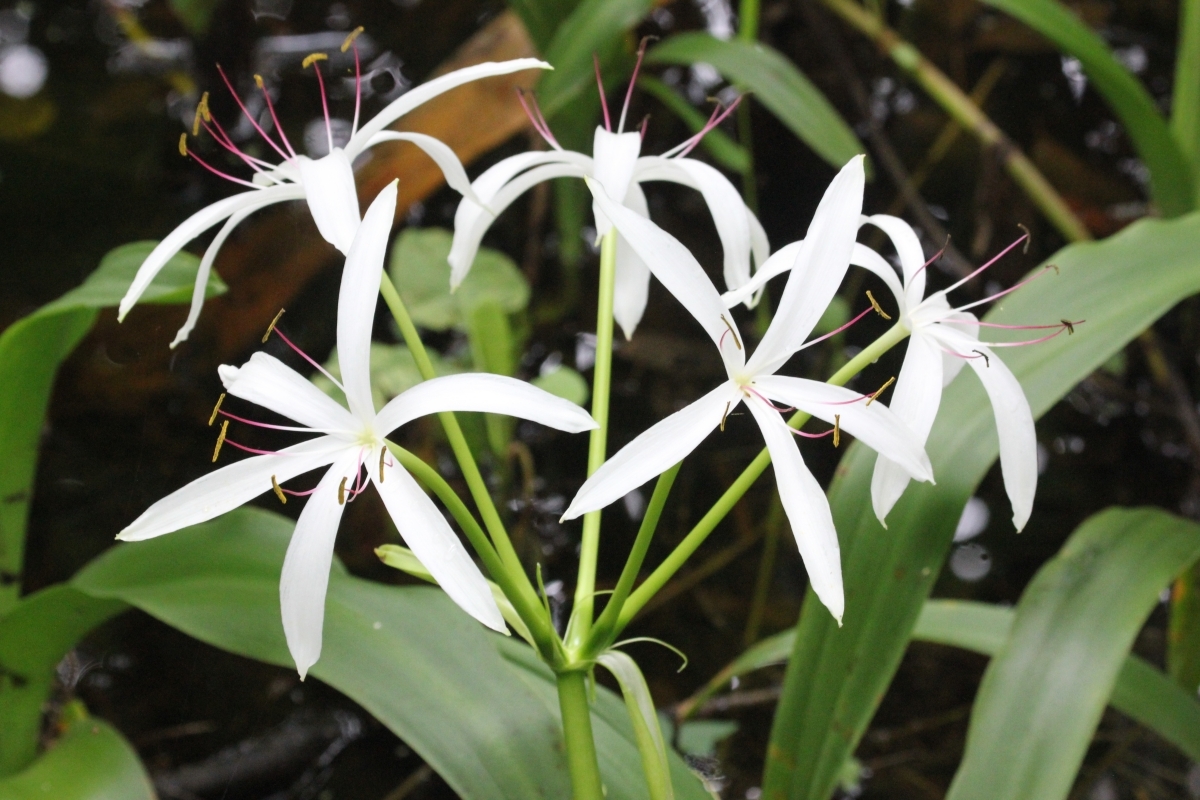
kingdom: Plantae
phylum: Tracheophyta
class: Liliopsida
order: Asparagales
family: Amaryllidaceae
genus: Crinum
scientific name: Crinum americanum
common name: Florida swamp-lily
